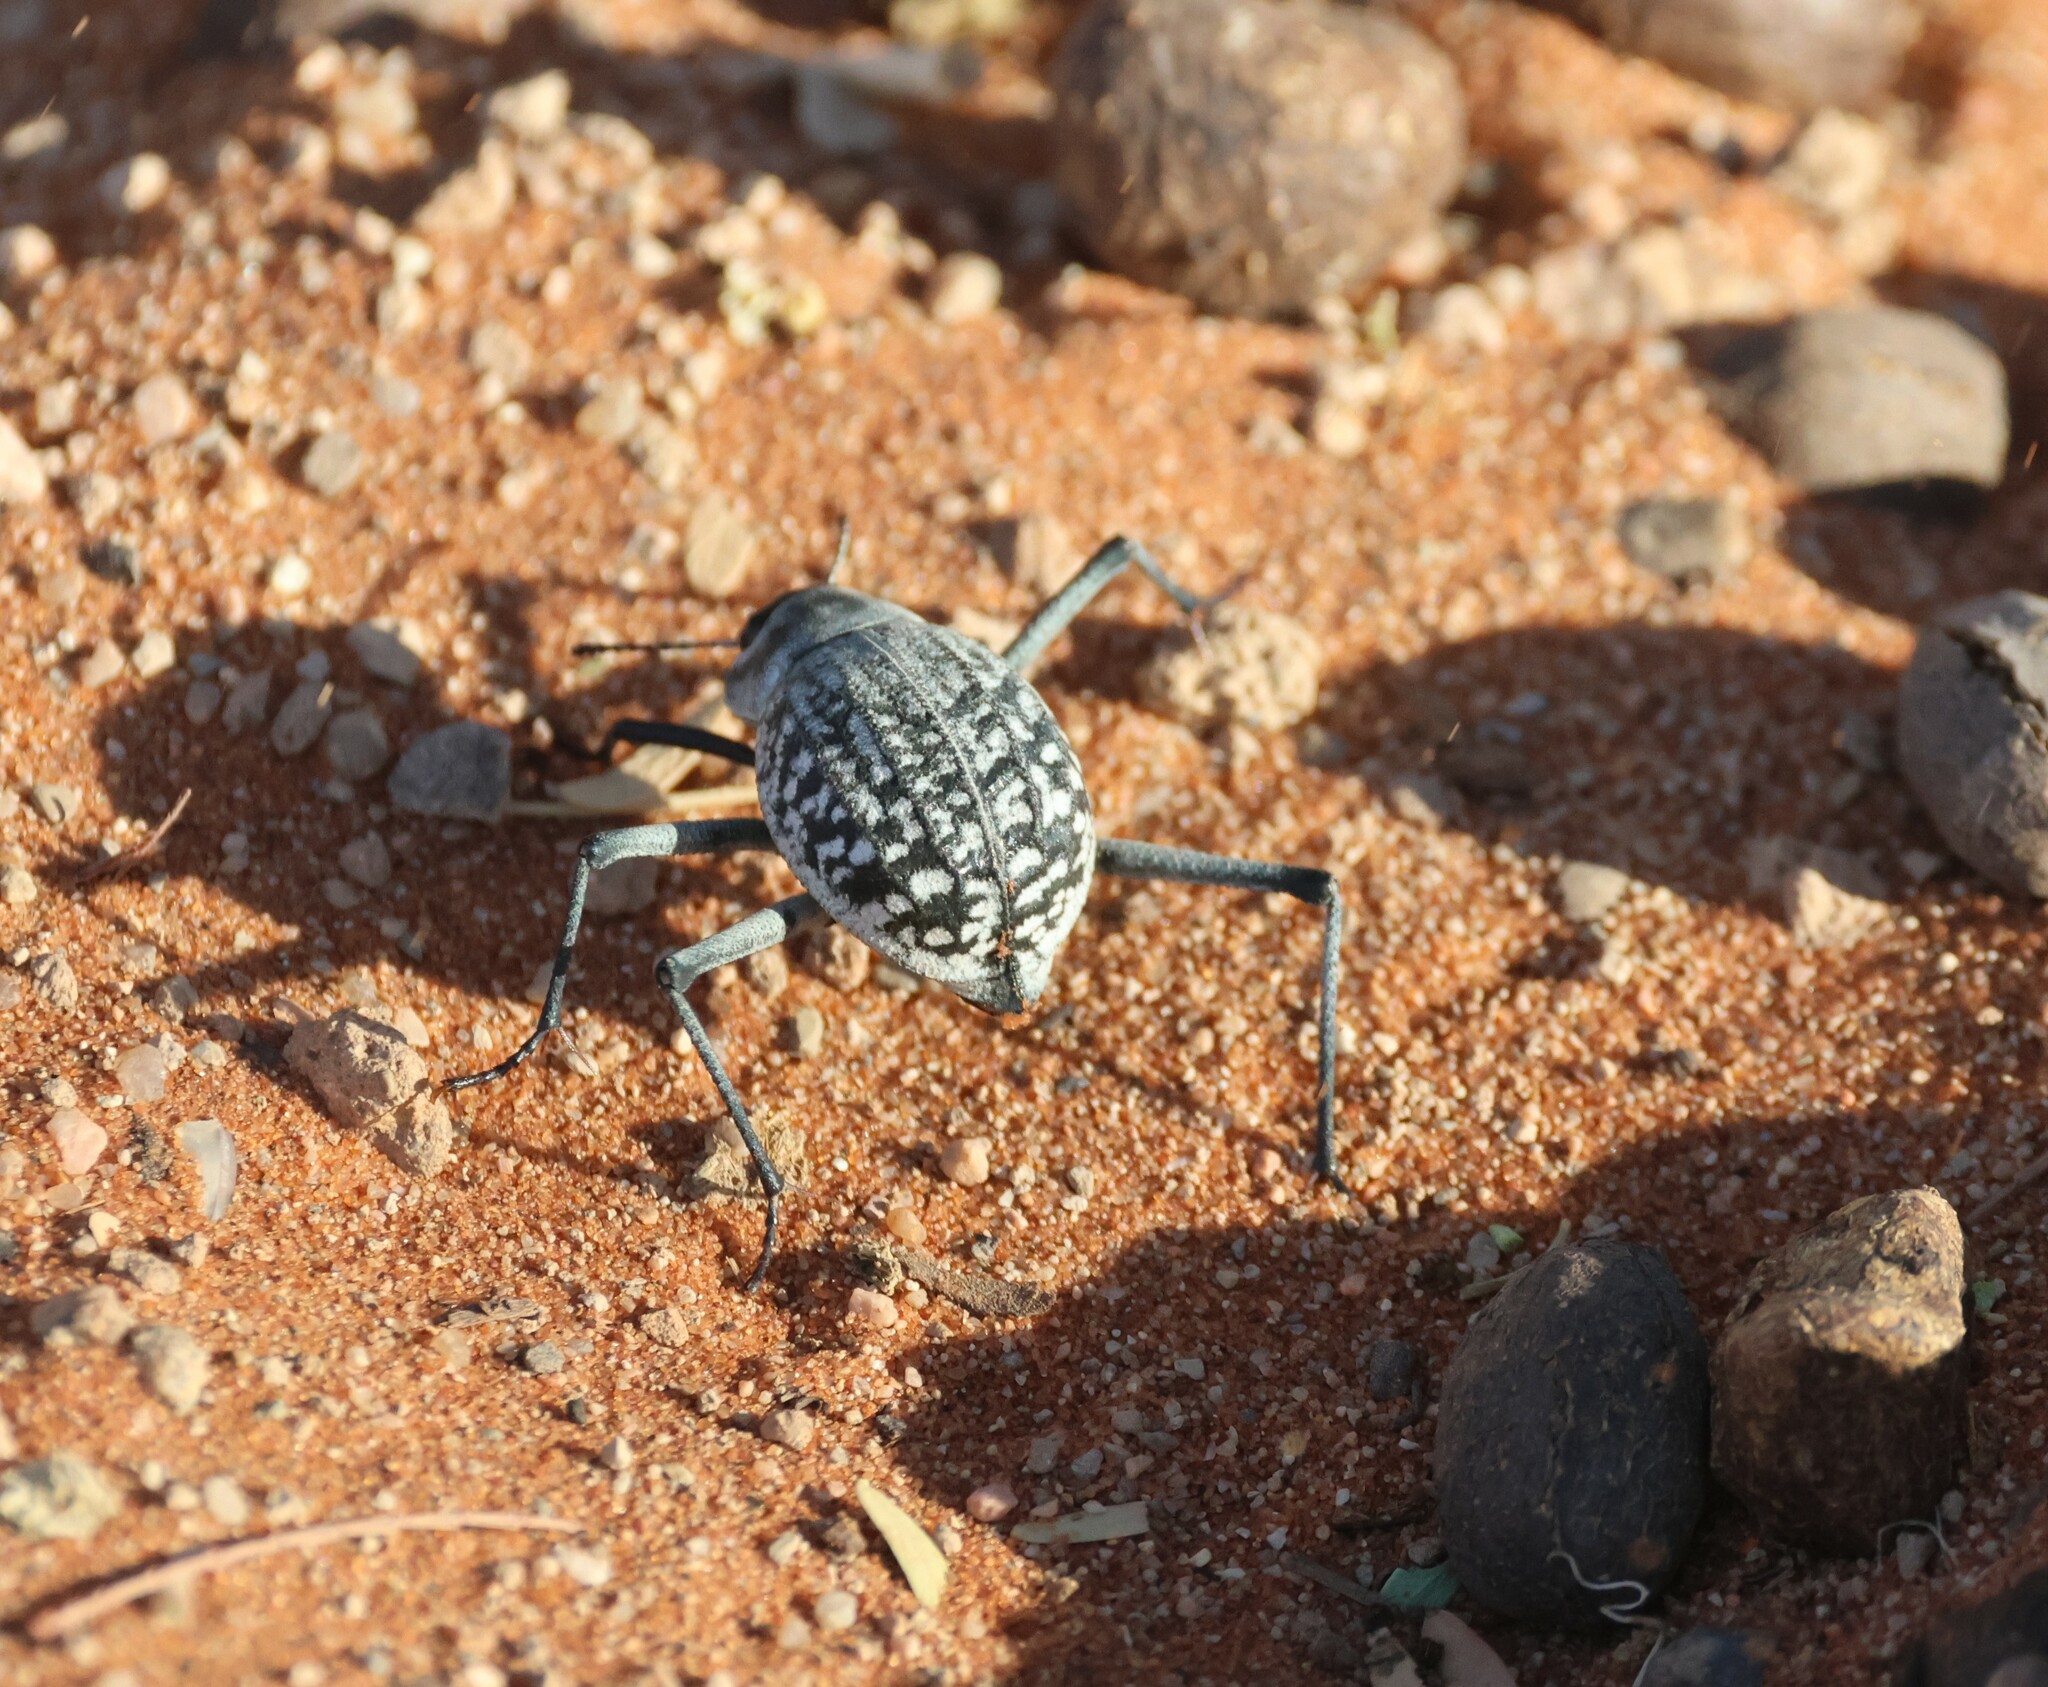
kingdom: Animalia
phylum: Arthropoda
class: Insecta
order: Coleoptera
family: Tenebrionidae
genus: Onymacris
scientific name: Onymacris
